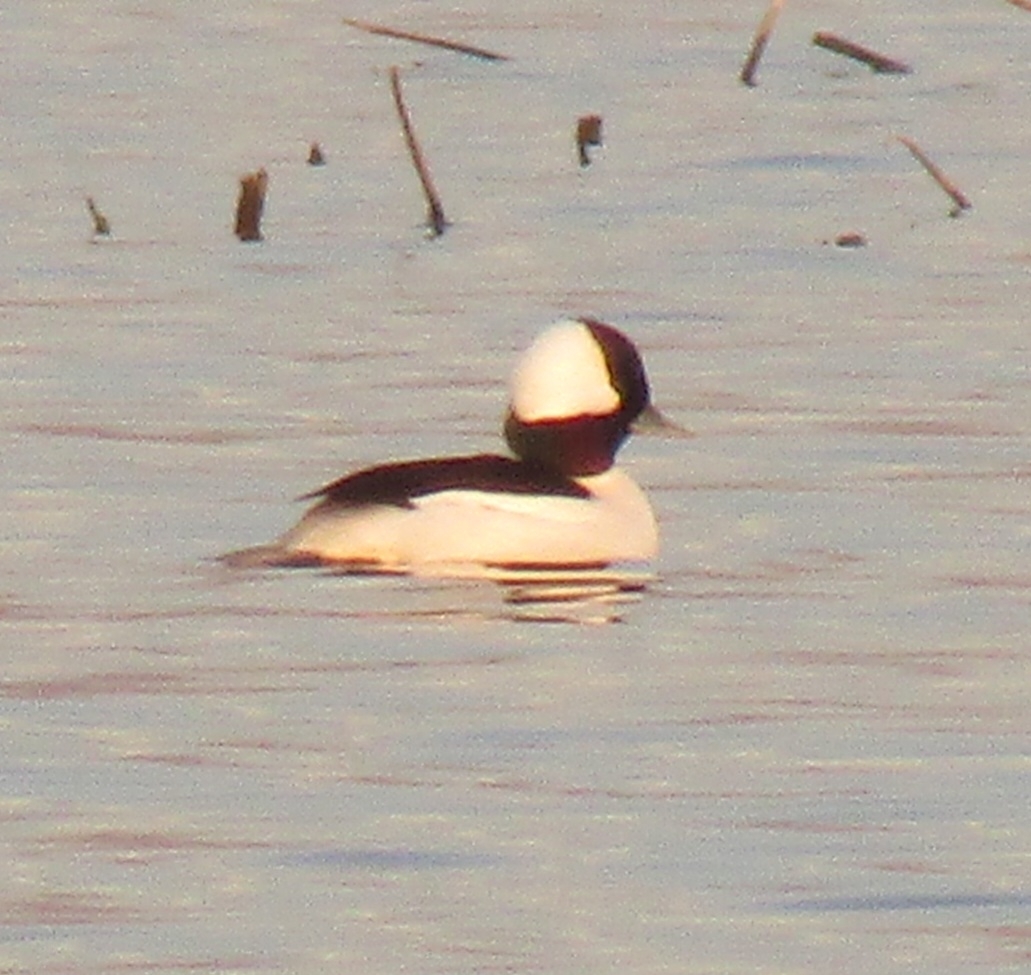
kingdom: Animalia
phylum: Chordata
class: Aves
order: Anseriformes
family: Anatidae
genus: Bucephala
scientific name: Bucephala albeola
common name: Bufflehead
